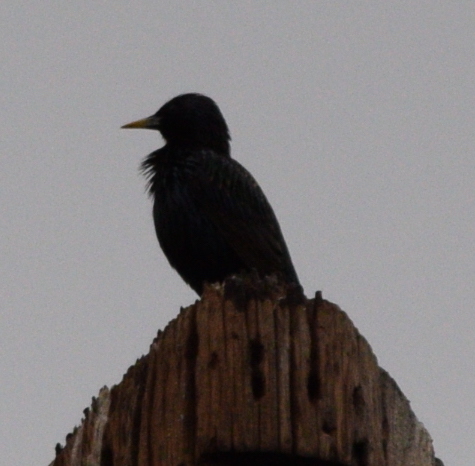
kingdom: Animalia
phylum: Chordata
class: Aves
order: Passeriformes
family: Sturnidae
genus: Sturnus
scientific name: Sturnus vulgaris
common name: Common starling
